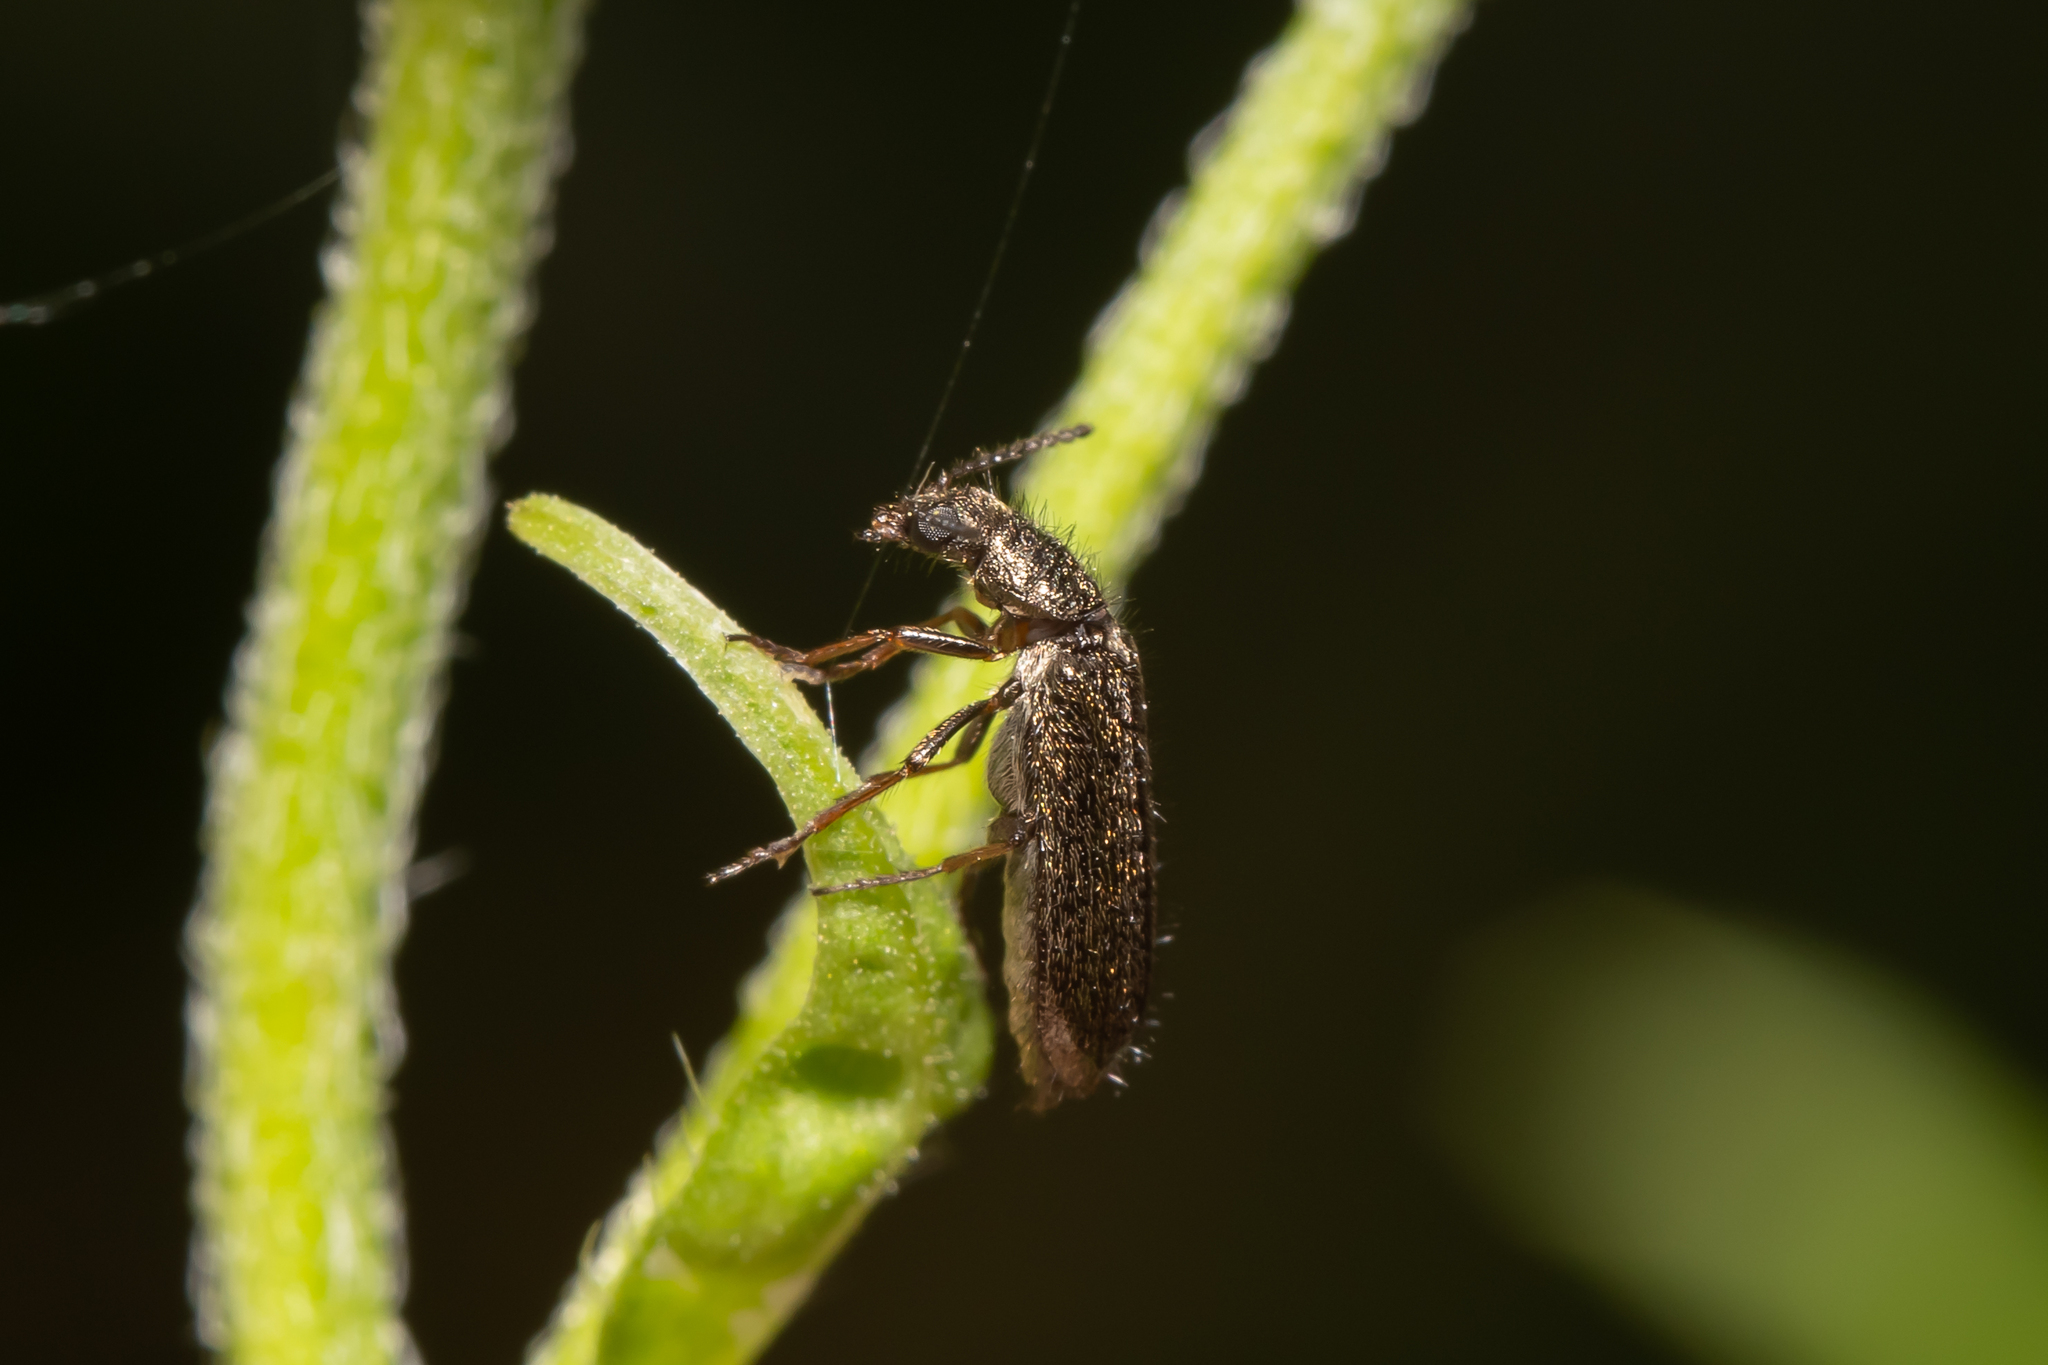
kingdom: Animalia
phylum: Arthropoda
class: Insecta
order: Coleoptera
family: Melyridae
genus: Dasytes
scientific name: Dasytes plumbeus
